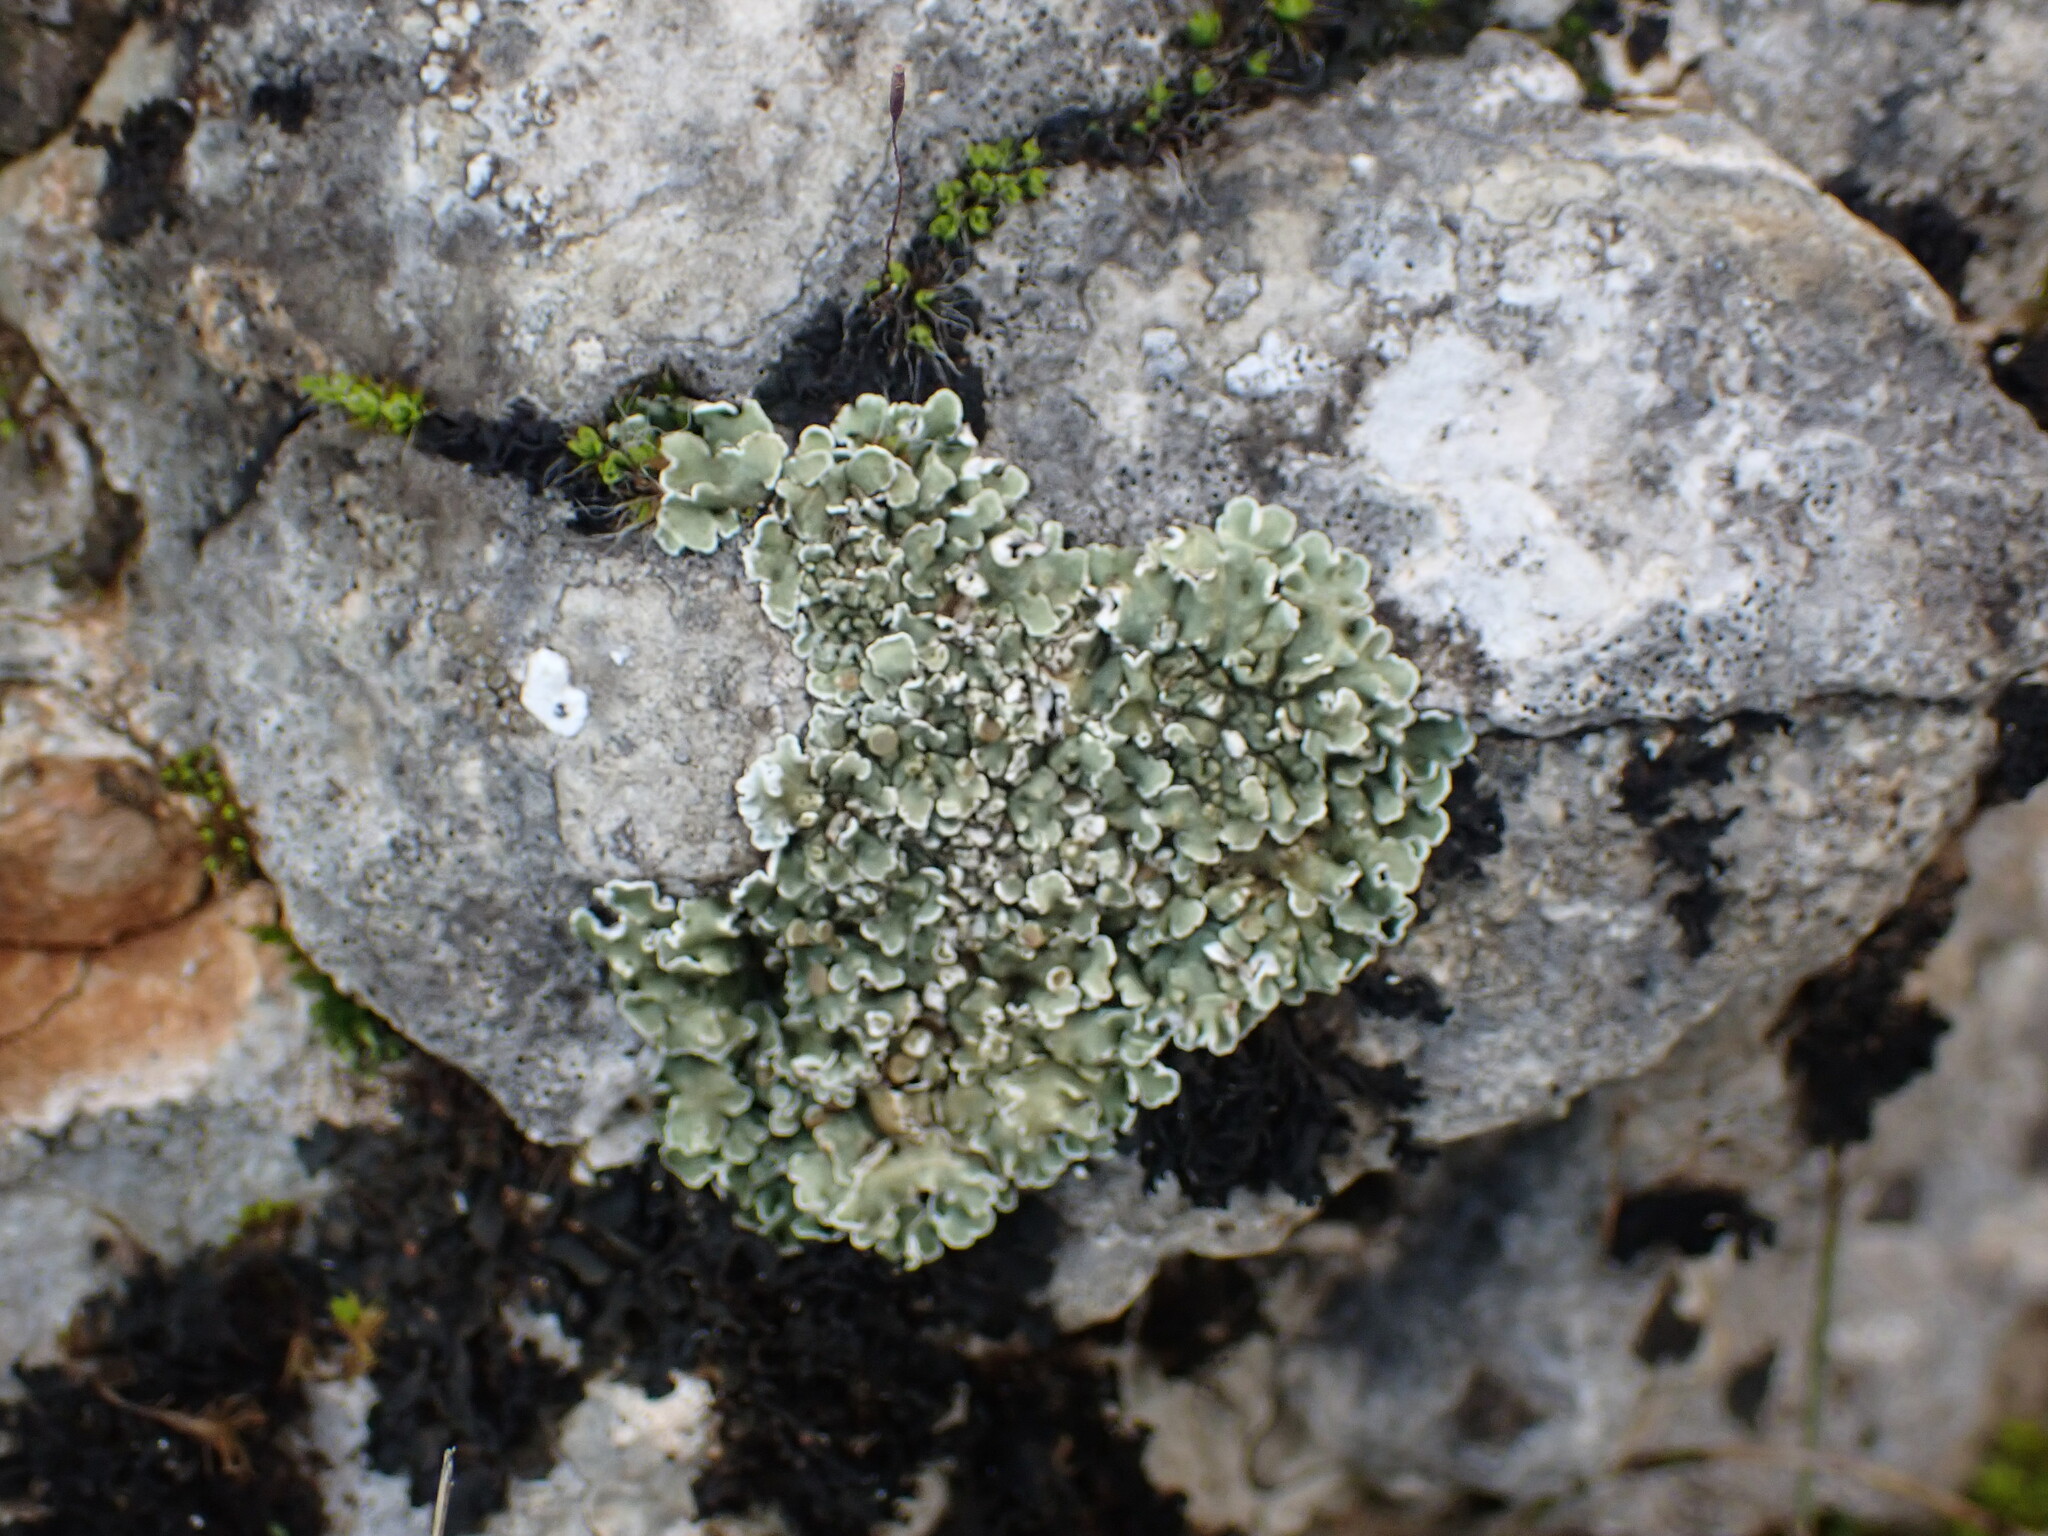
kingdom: Fungi
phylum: Ascomycota
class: Lecanoromycetes
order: Lecanorales
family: Stereocaulaceae
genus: Squamarina
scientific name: Squamarina cartilaginea
